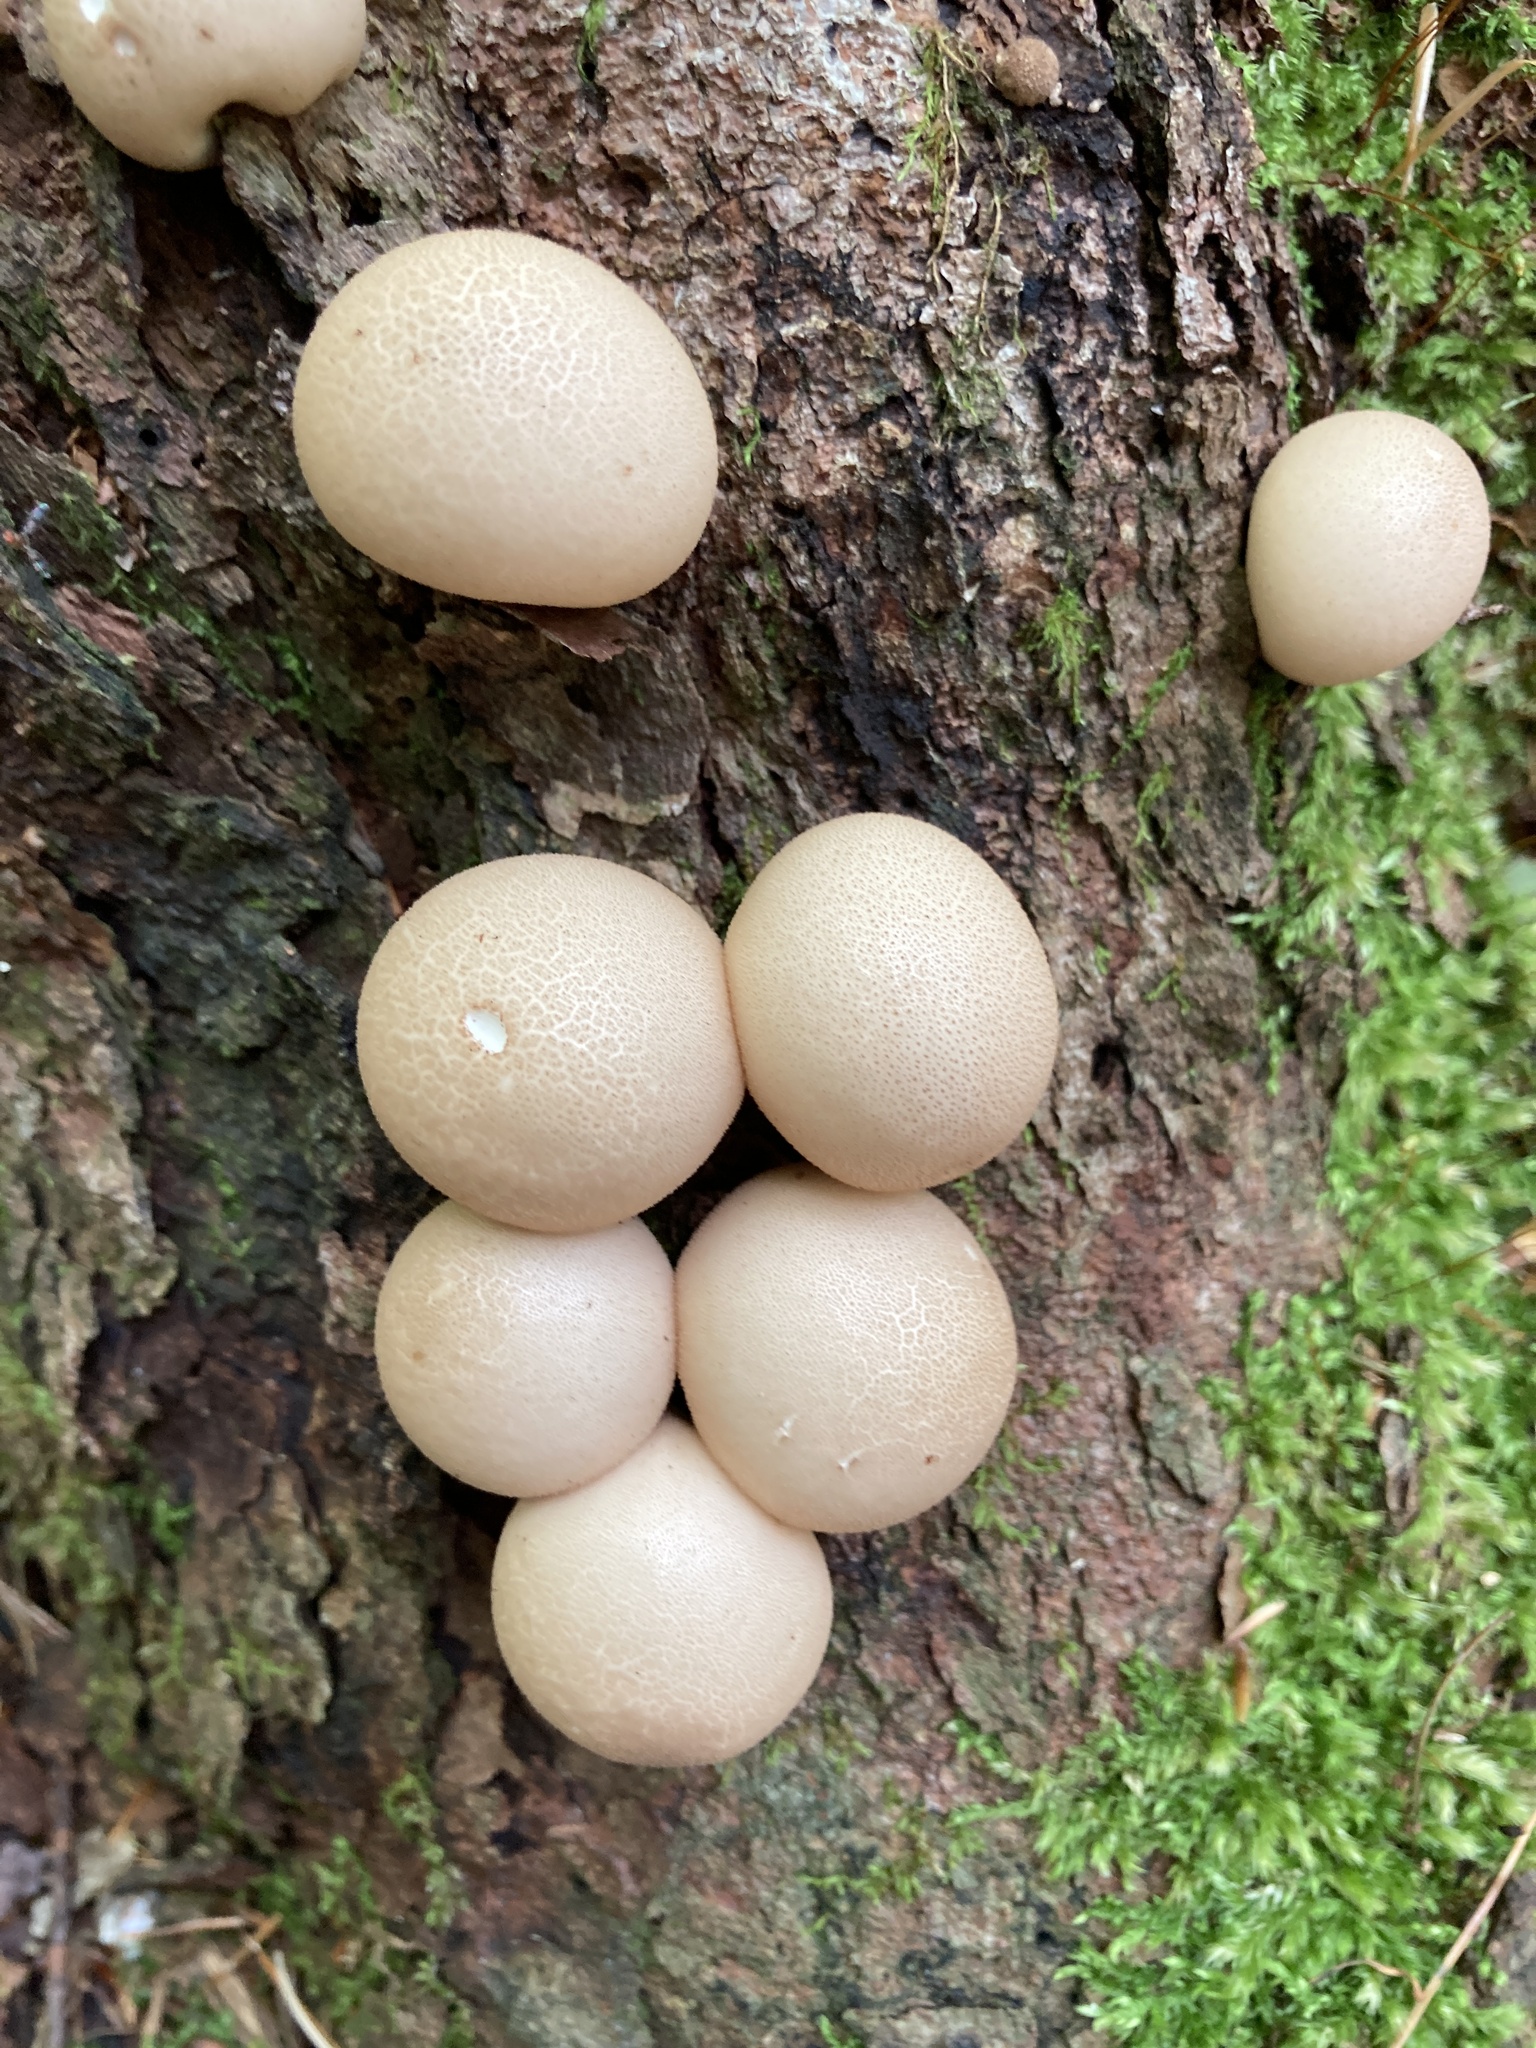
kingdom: Fungi
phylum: Basidiomycota
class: Agaricomycetes
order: Agaricales
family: Lycoperdaceae
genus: Apioperdon
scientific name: Apioperdon pyriforme
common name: Pear-shaped puffball
